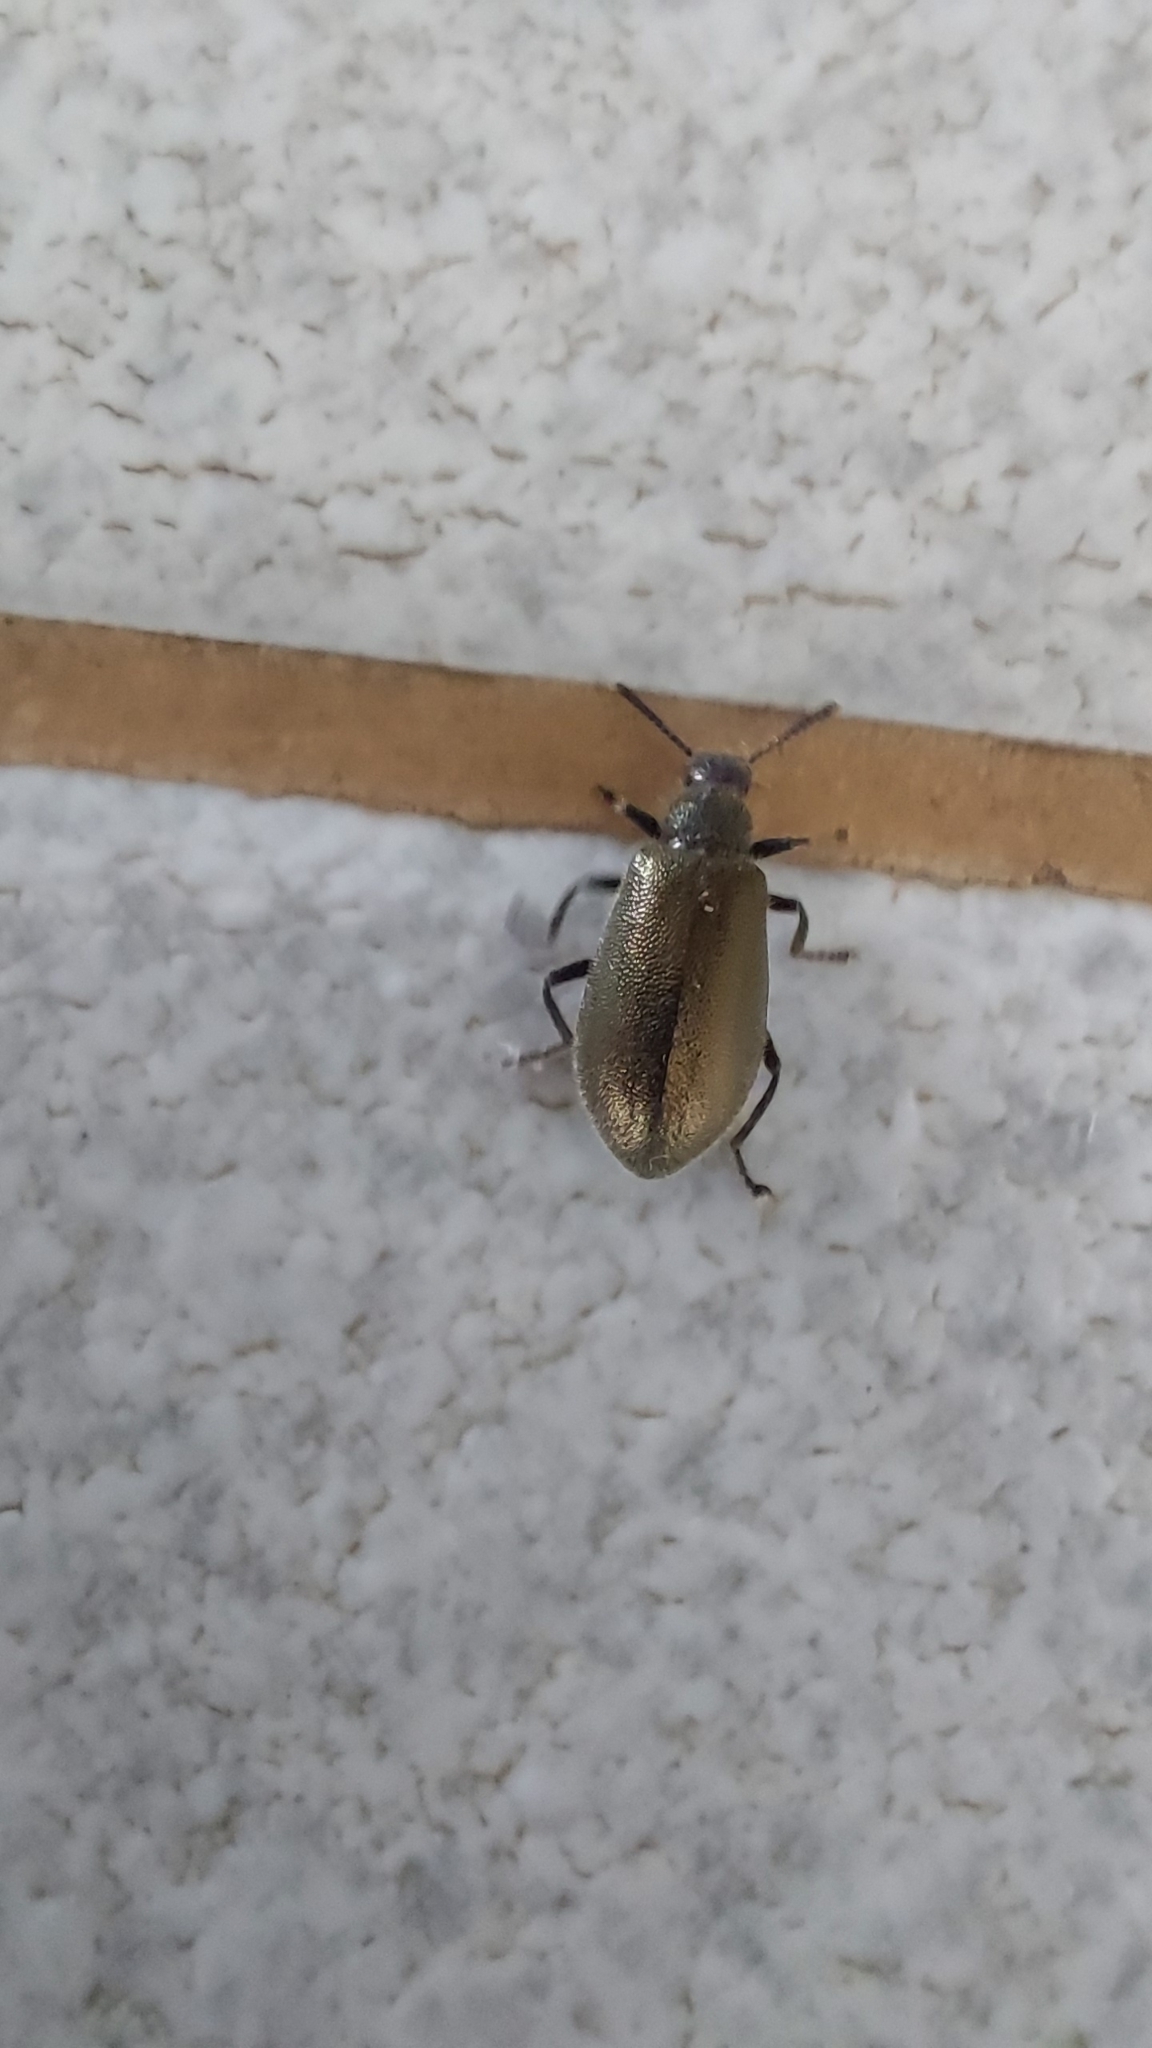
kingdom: Animalia
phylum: Arthropoda
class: Insecta
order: Coleoptera
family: Tenebrionidae
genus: Lagria
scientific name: Lagria villosa
